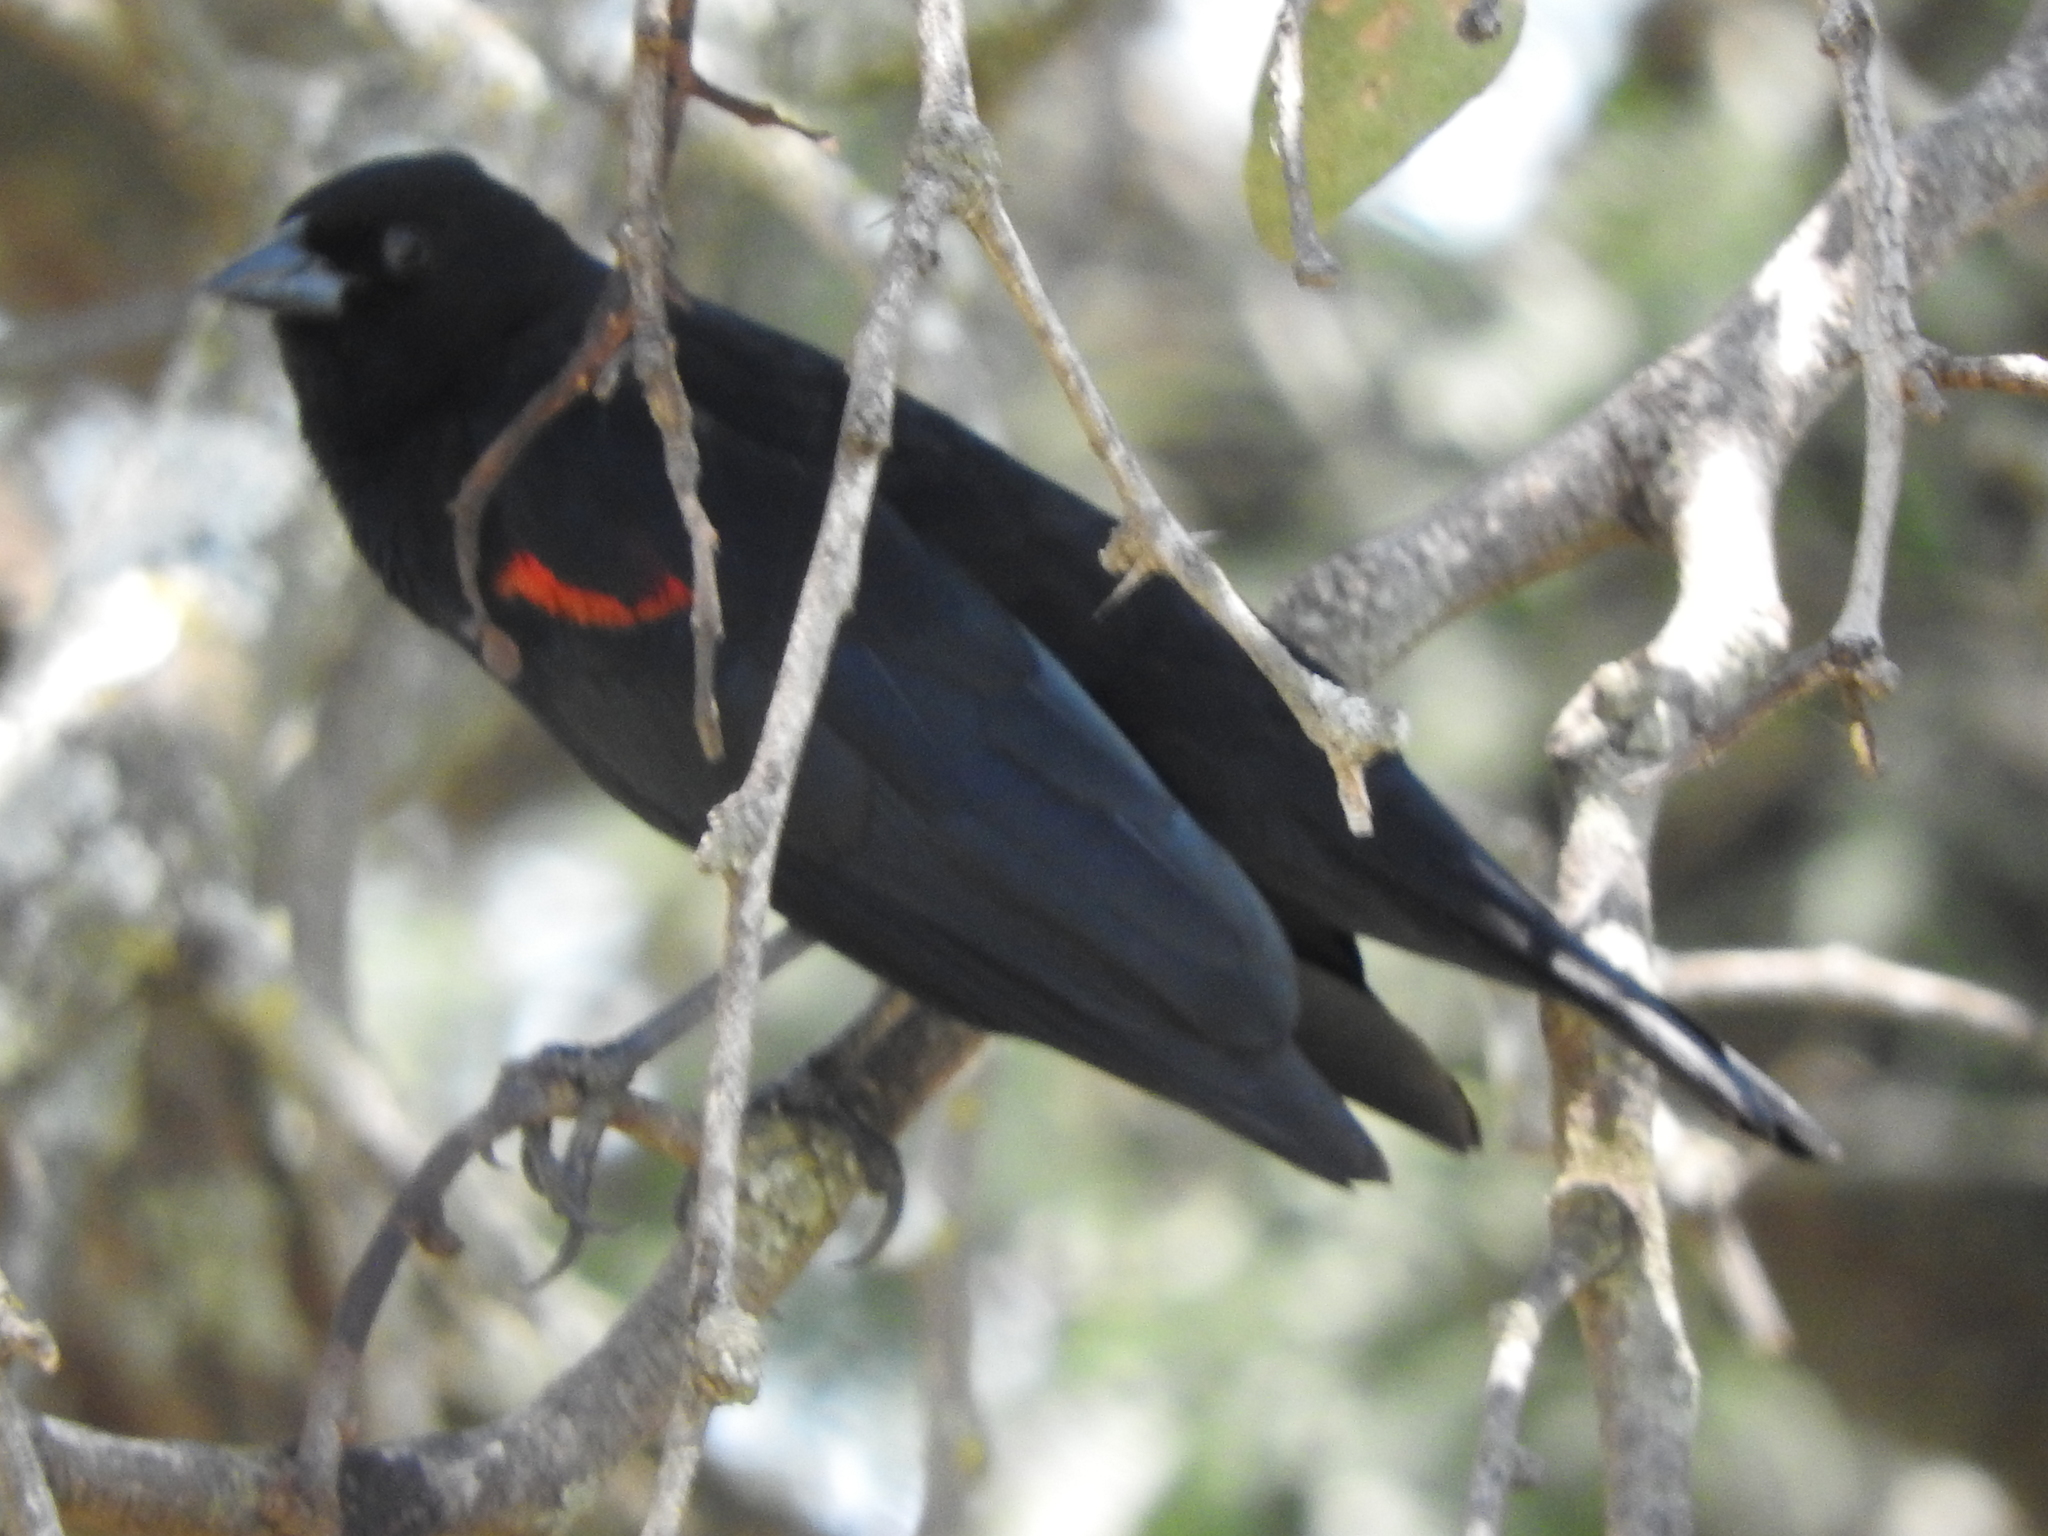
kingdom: Animalia
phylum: Chordata
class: Aves
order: Passeriformes
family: Icteridae
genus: Agelaius
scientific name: Agelaius phoeniceus
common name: Red-winged blackbird
